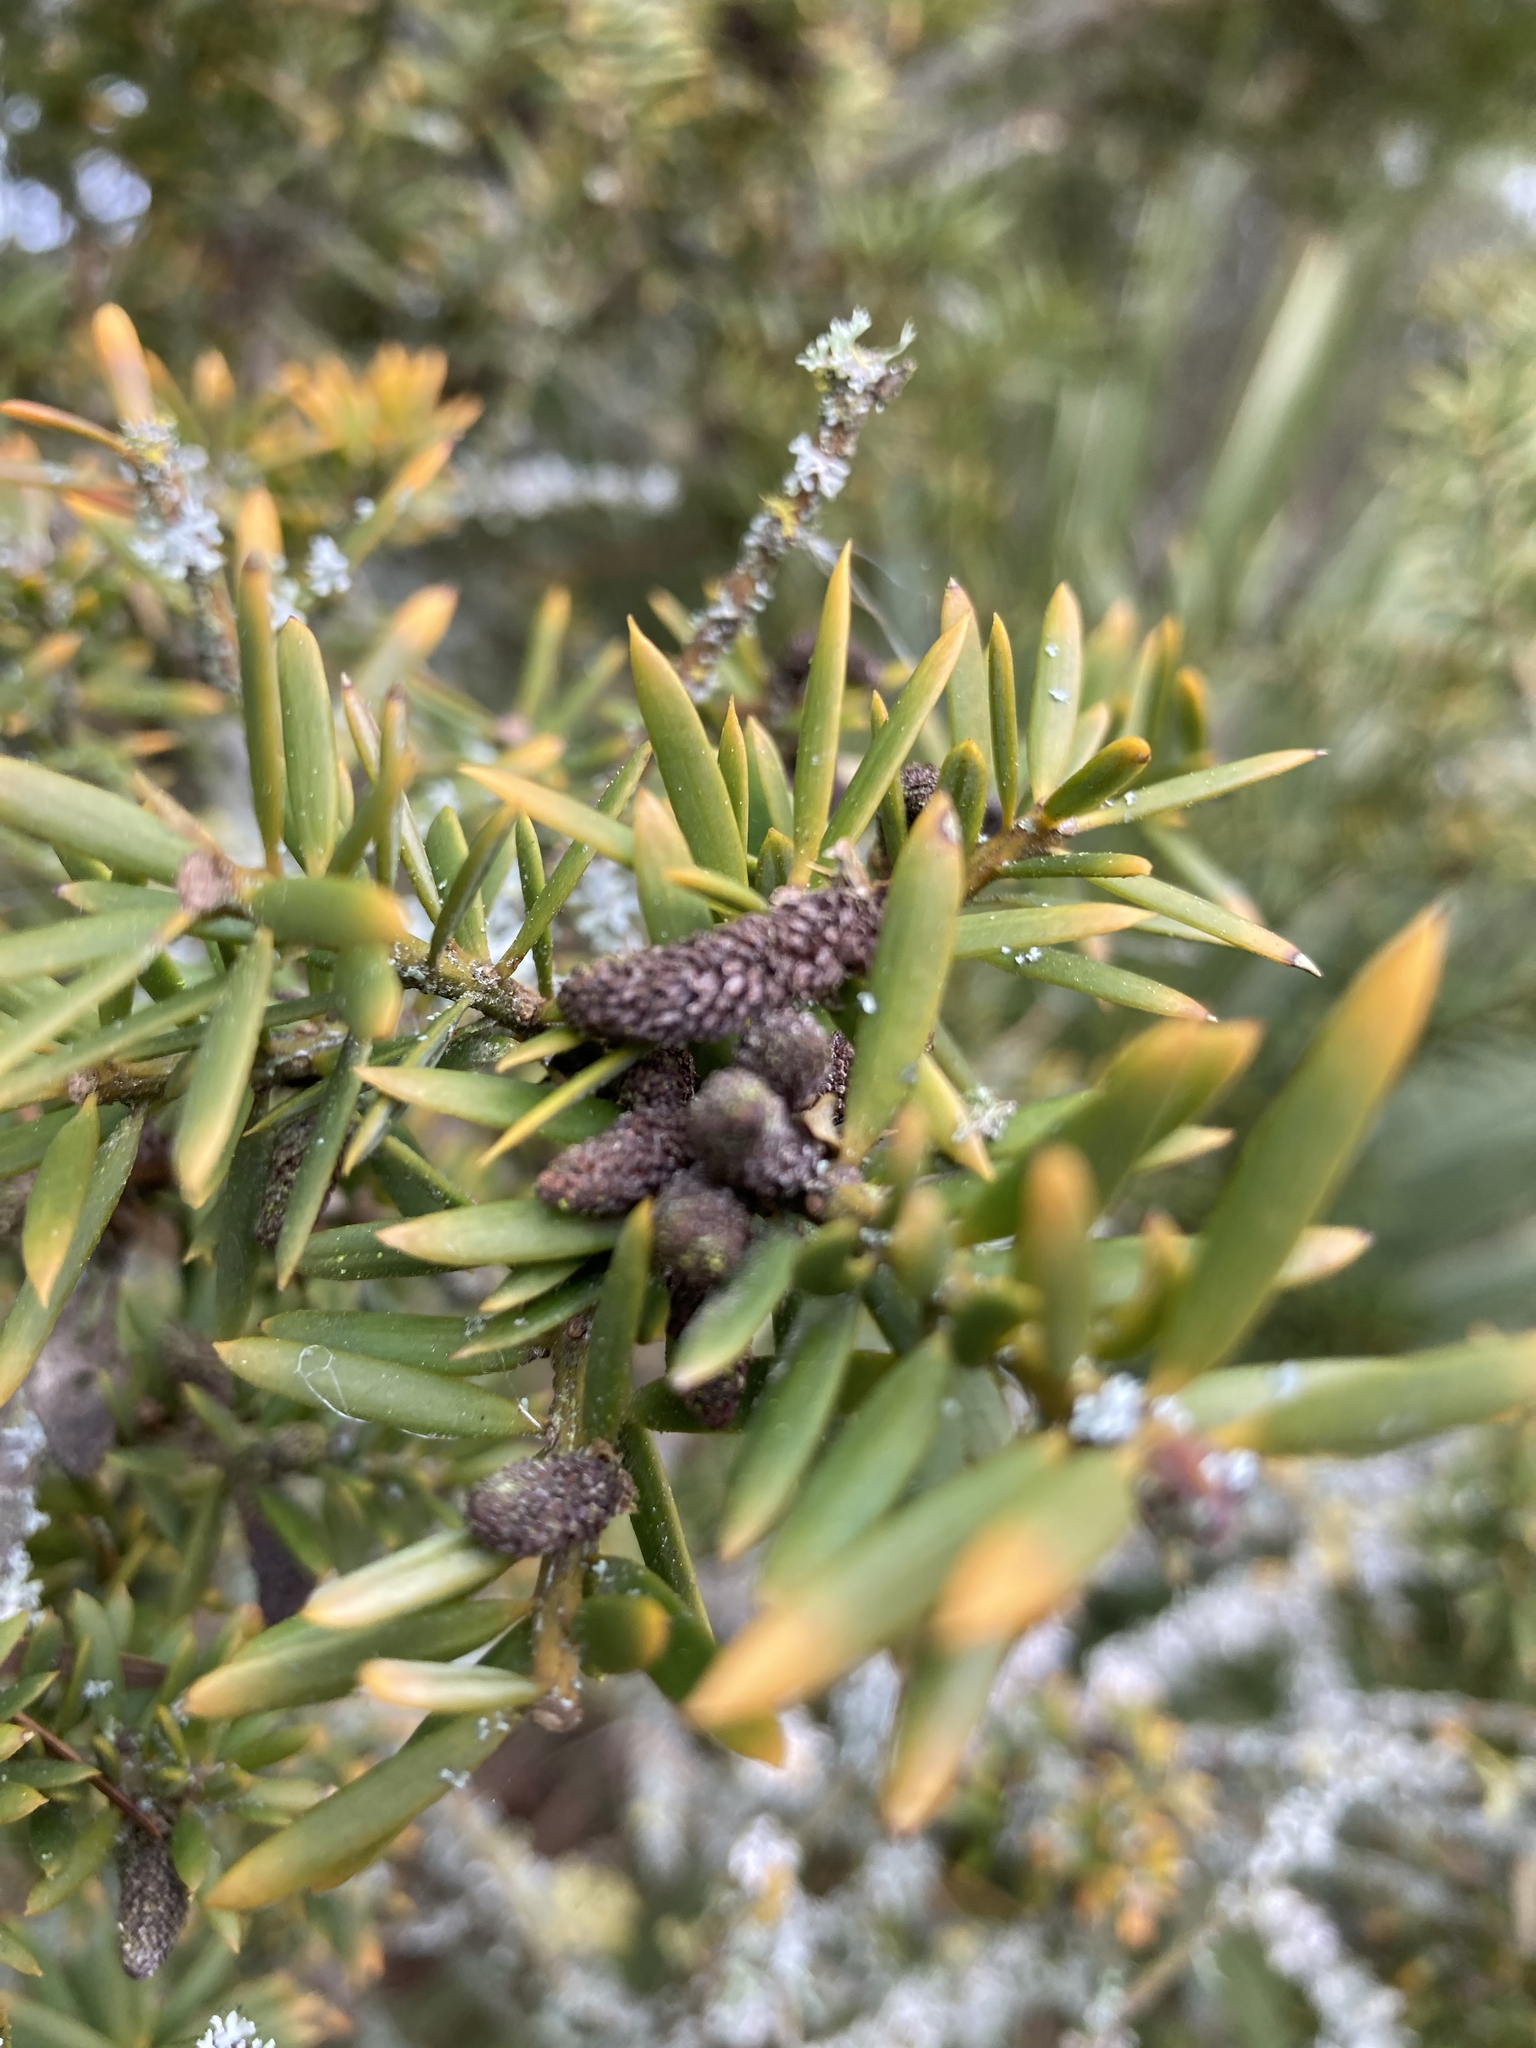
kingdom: Plantae
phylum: Tracheophyta
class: Pinopsida
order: Pinales
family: Podocarpaceae
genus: Podocarpus
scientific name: Podocarpus totara
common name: Totara
